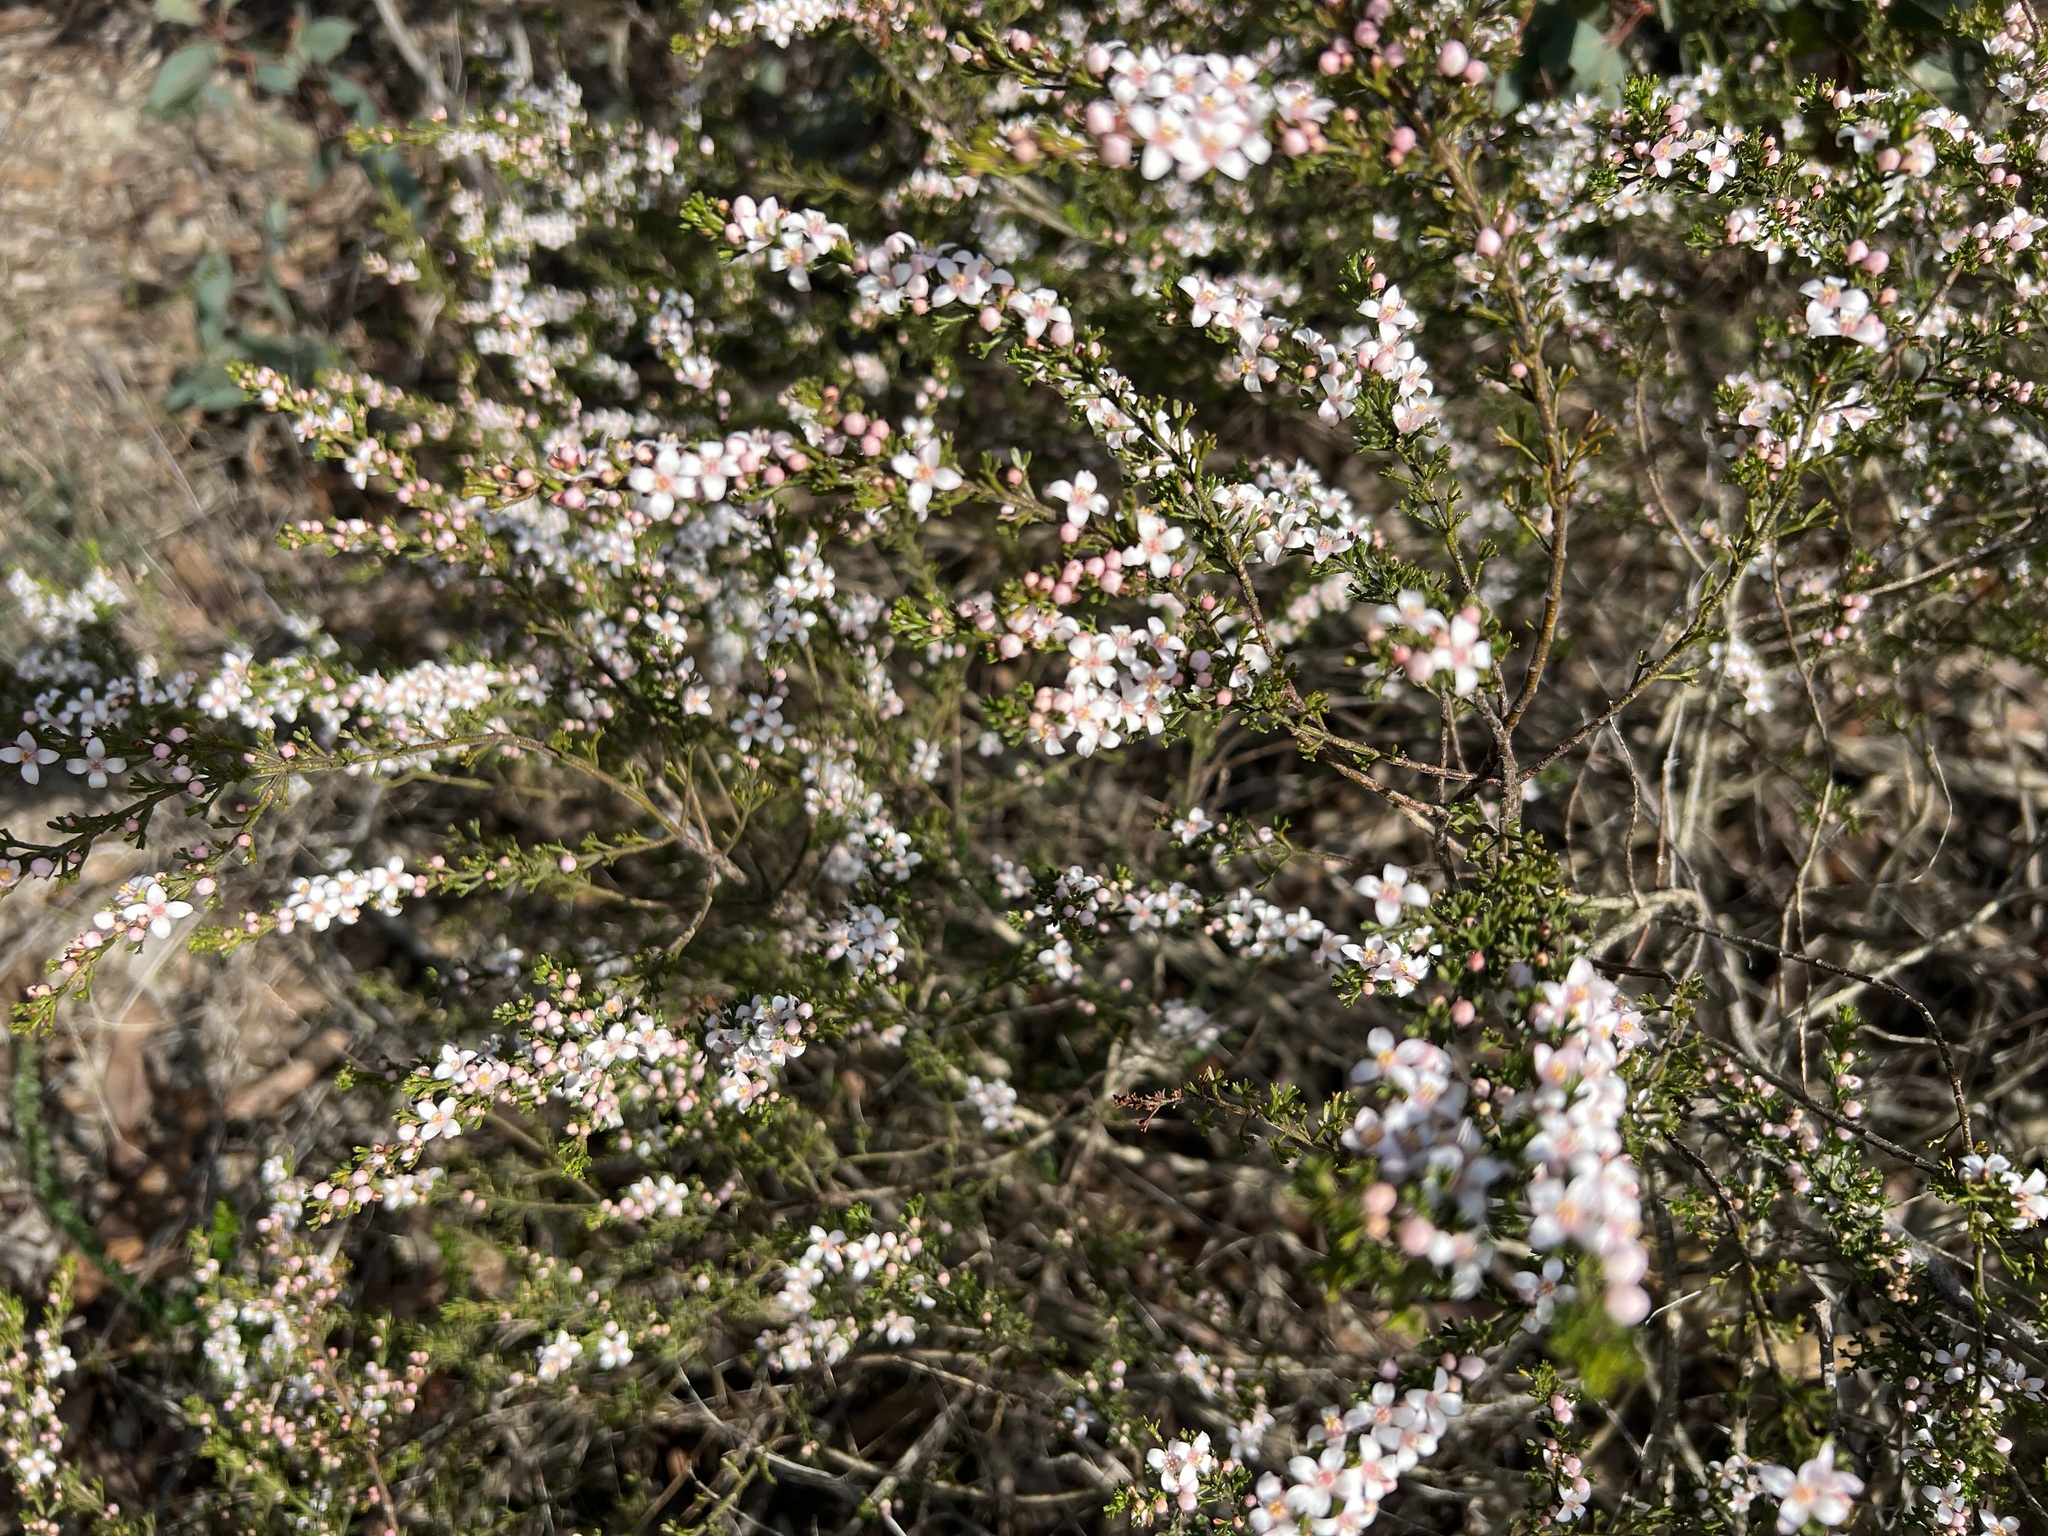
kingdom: Plantae
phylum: Tracheophyta
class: Magnoliopsida
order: Sapindales
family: Rutaceae
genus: Cyanothamnus
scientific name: Cyanothamnus anemonifolius
